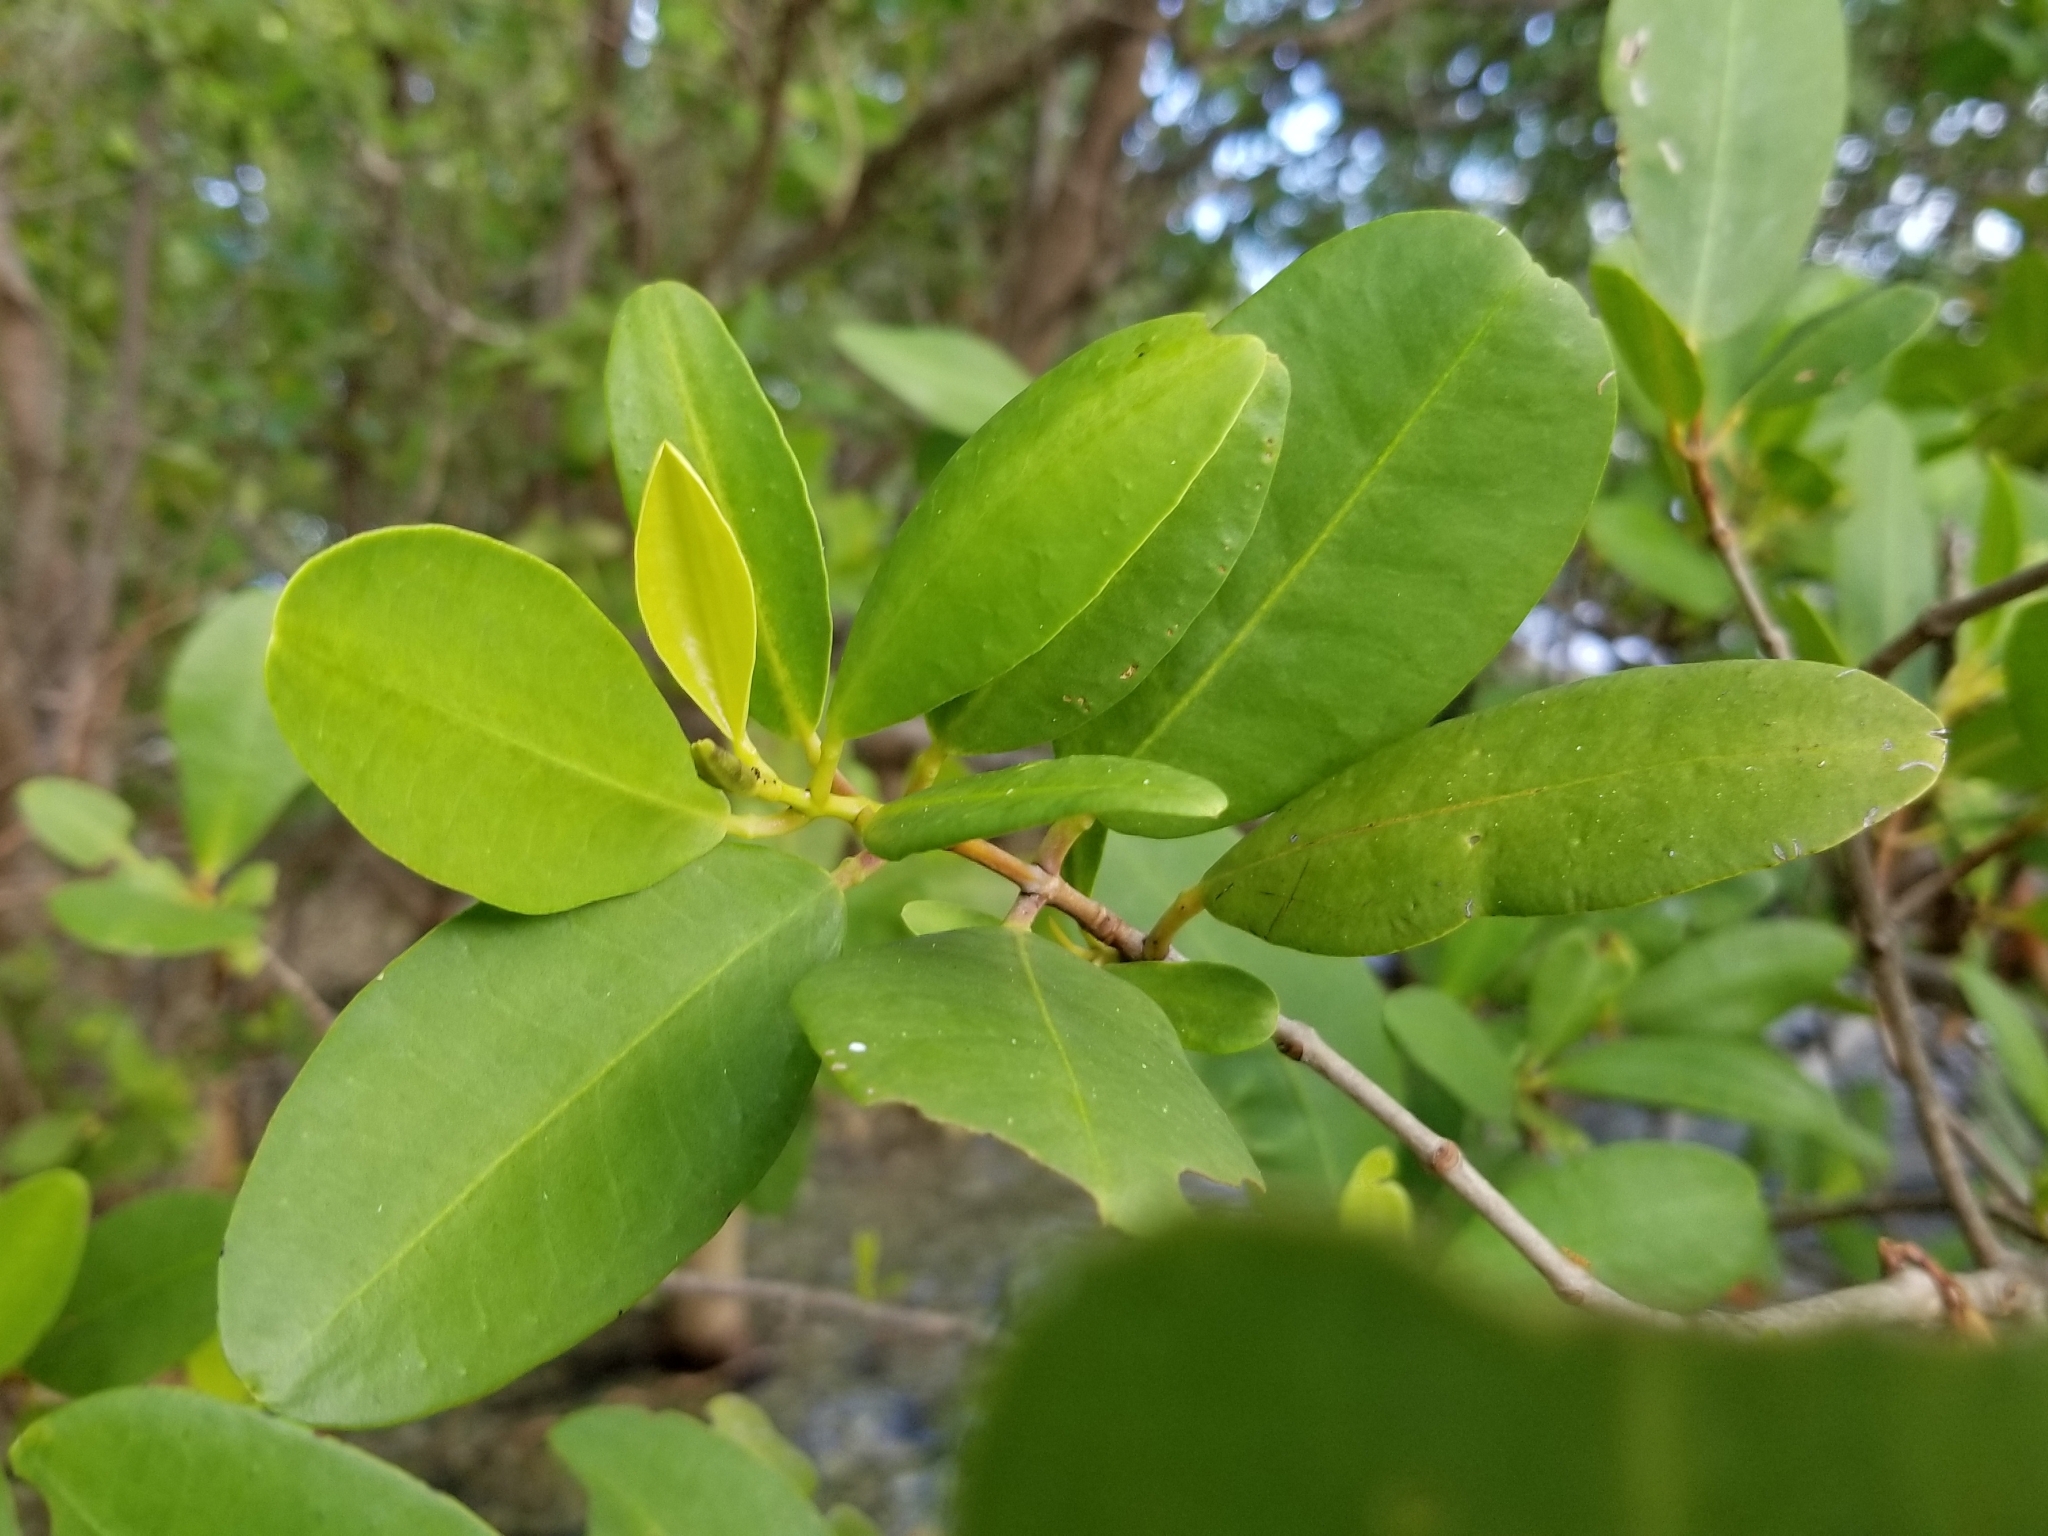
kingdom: Plantae
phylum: Tracheophyta
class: Magnoliopsida
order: Myrtales
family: Combretaceae
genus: Laguncularia
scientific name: Laguncularia racemosa
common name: White mangrove
